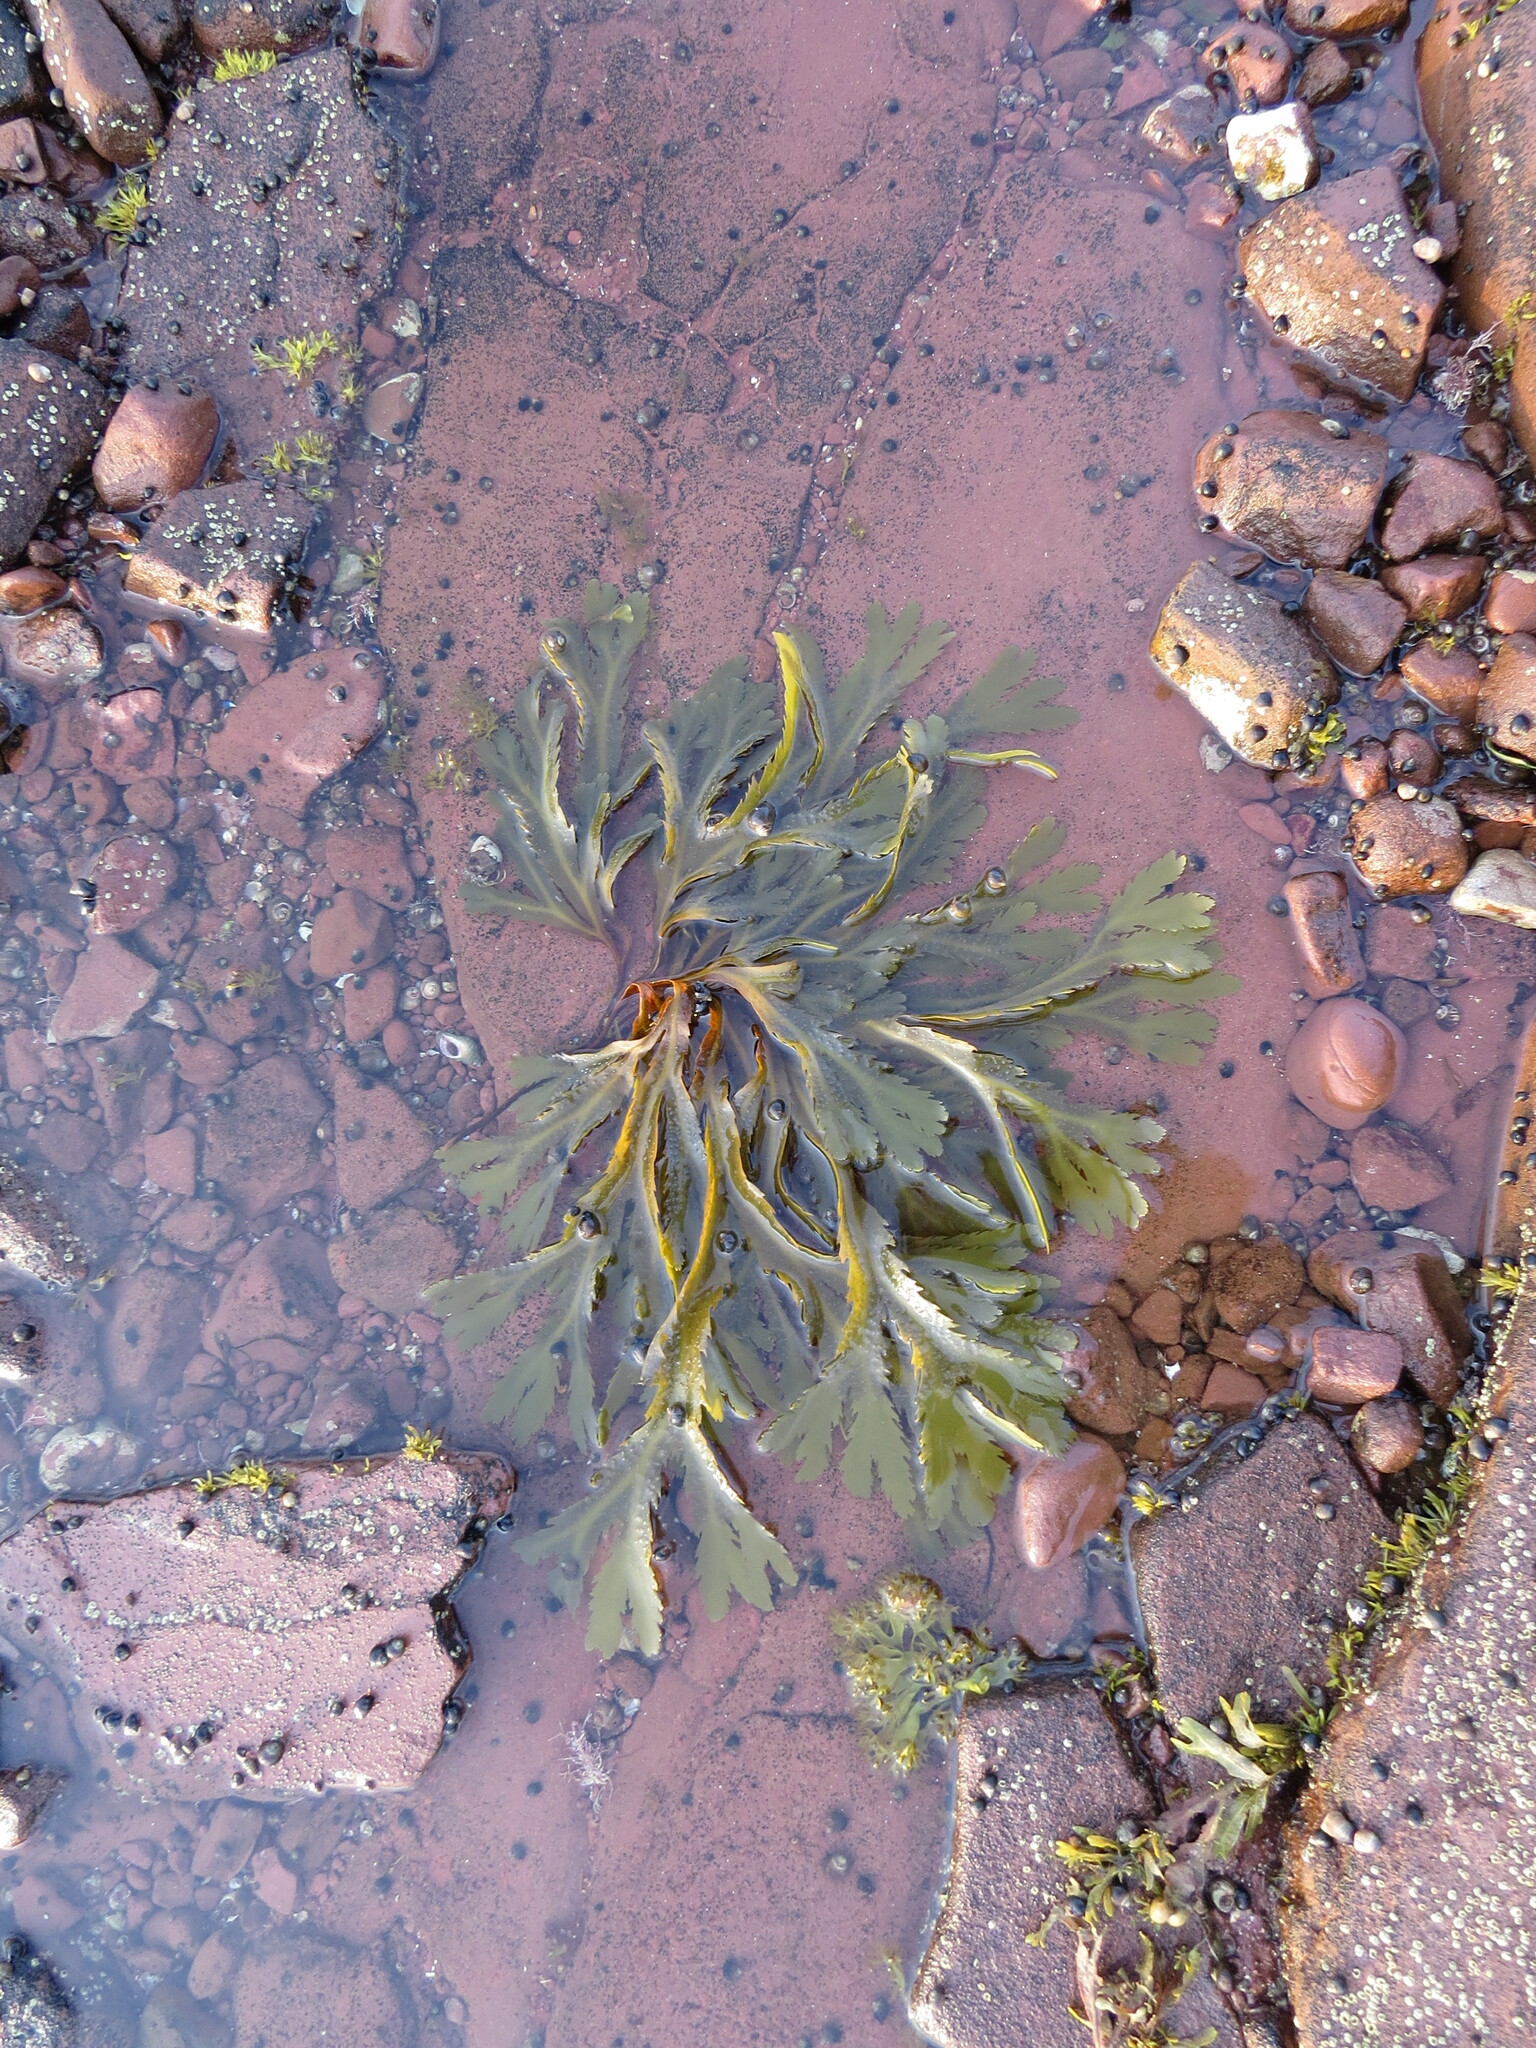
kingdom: Chromista
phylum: Ochrophyta
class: Phaeophyceae
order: Fucales
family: Fucaceae
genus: Fucus
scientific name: Fucus serratus
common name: Toothed wrack
